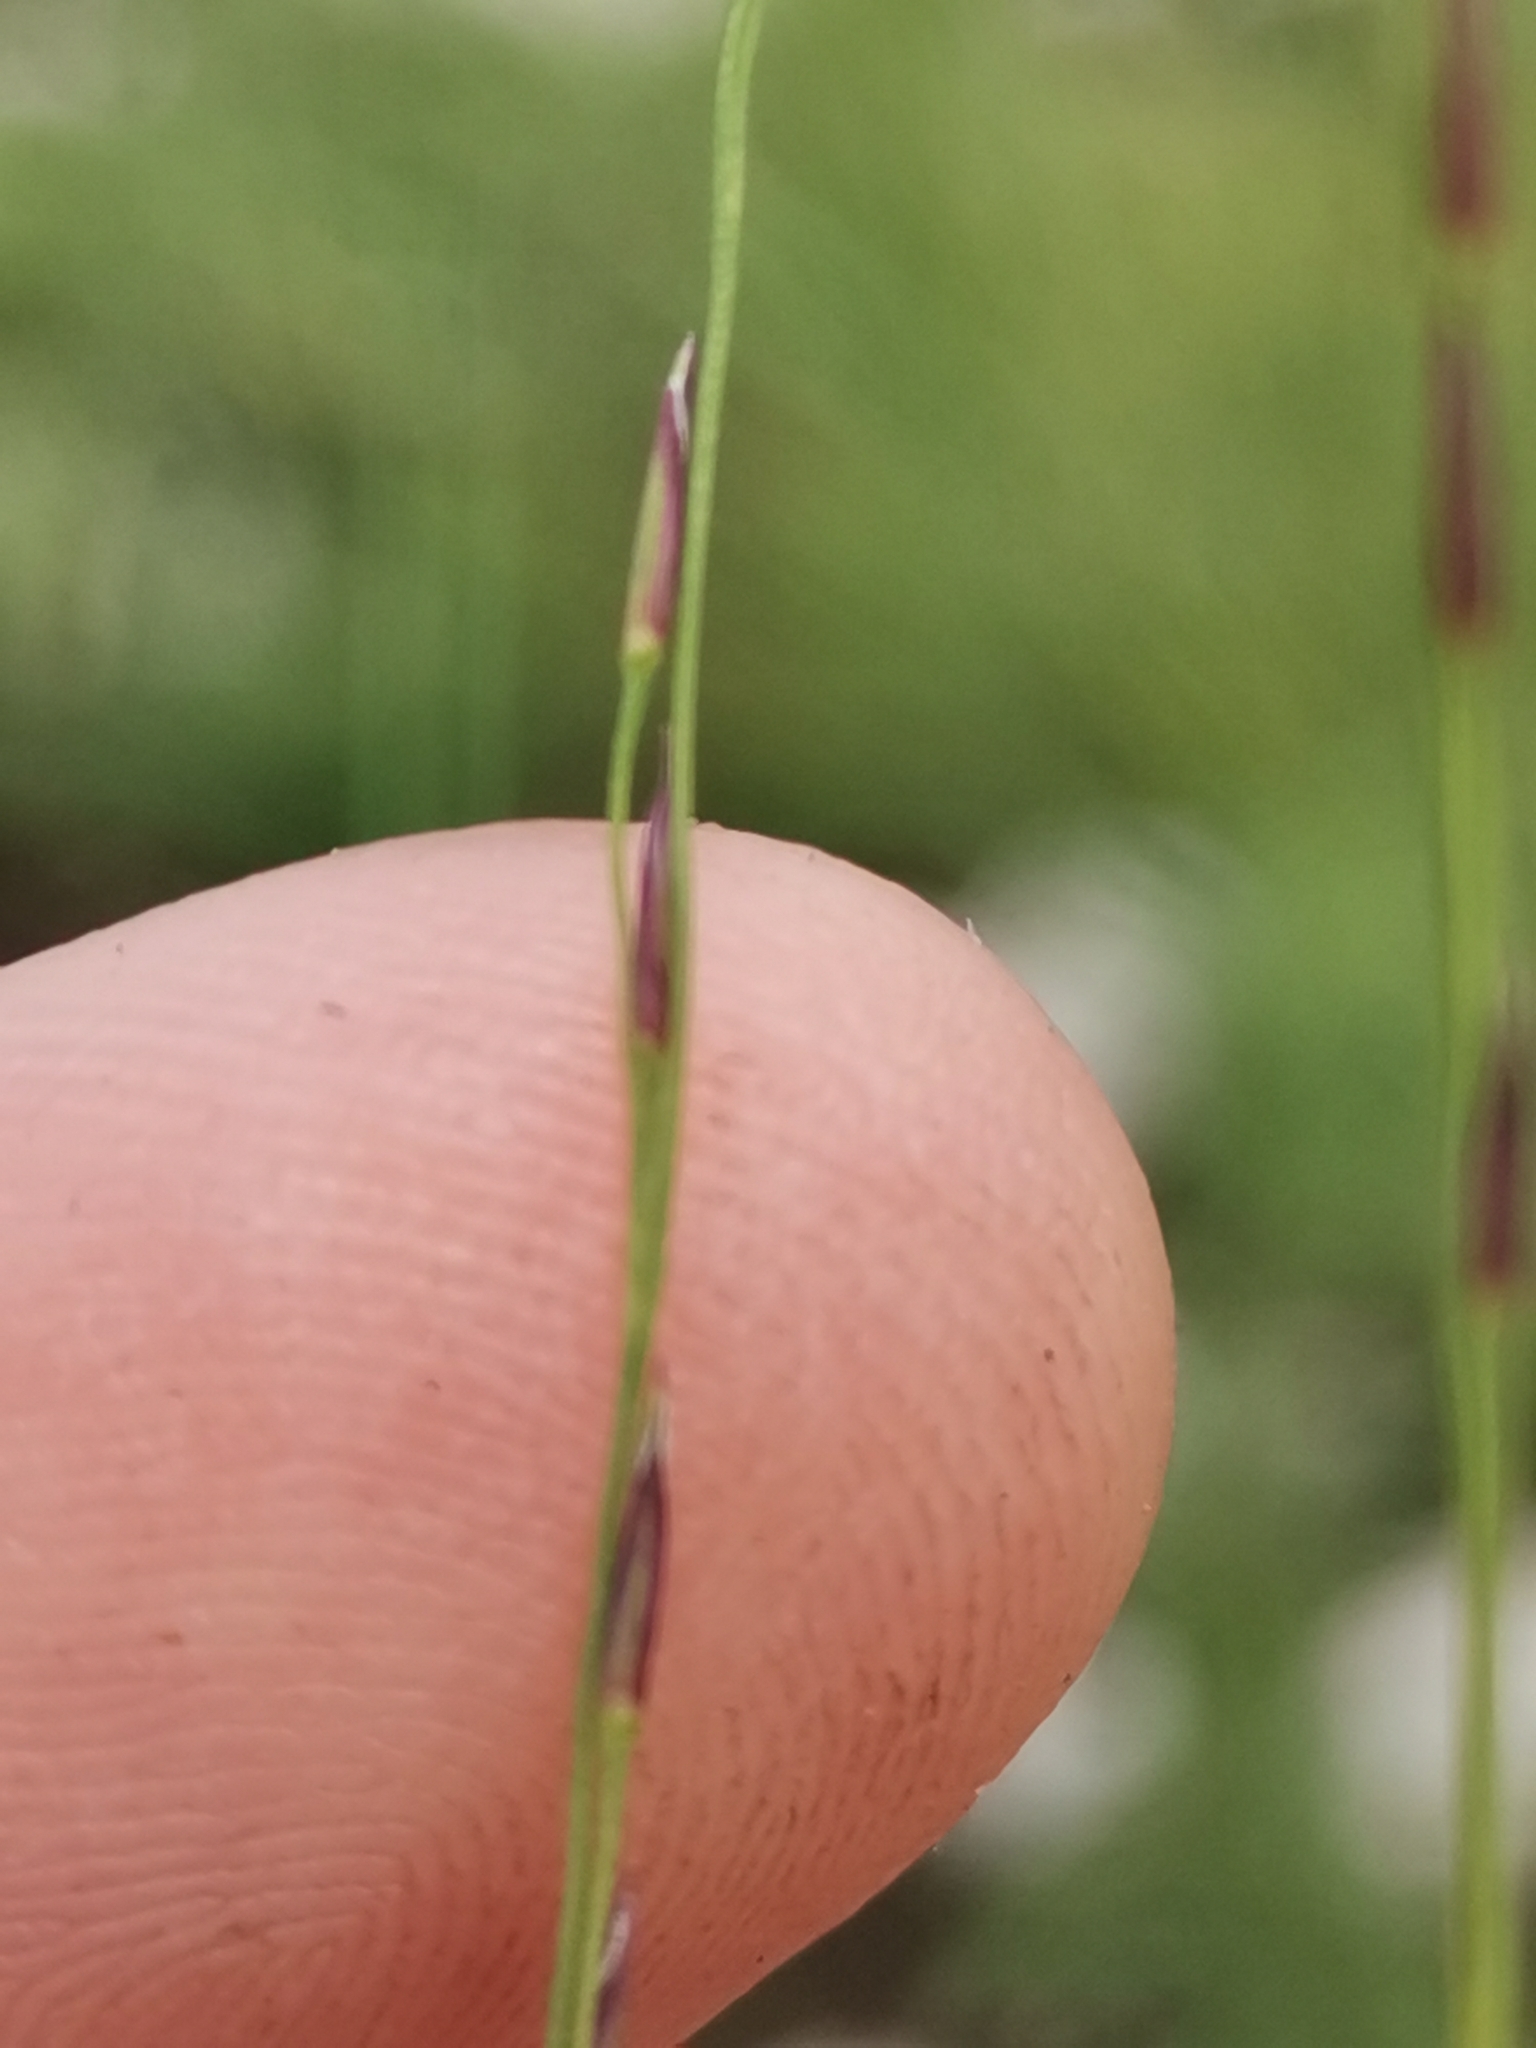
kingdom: Plantae
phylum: Tracheophyta
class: Liliopsida
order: Poales
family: Poaceae
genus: Molinia
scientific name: Molinia arundinacea
